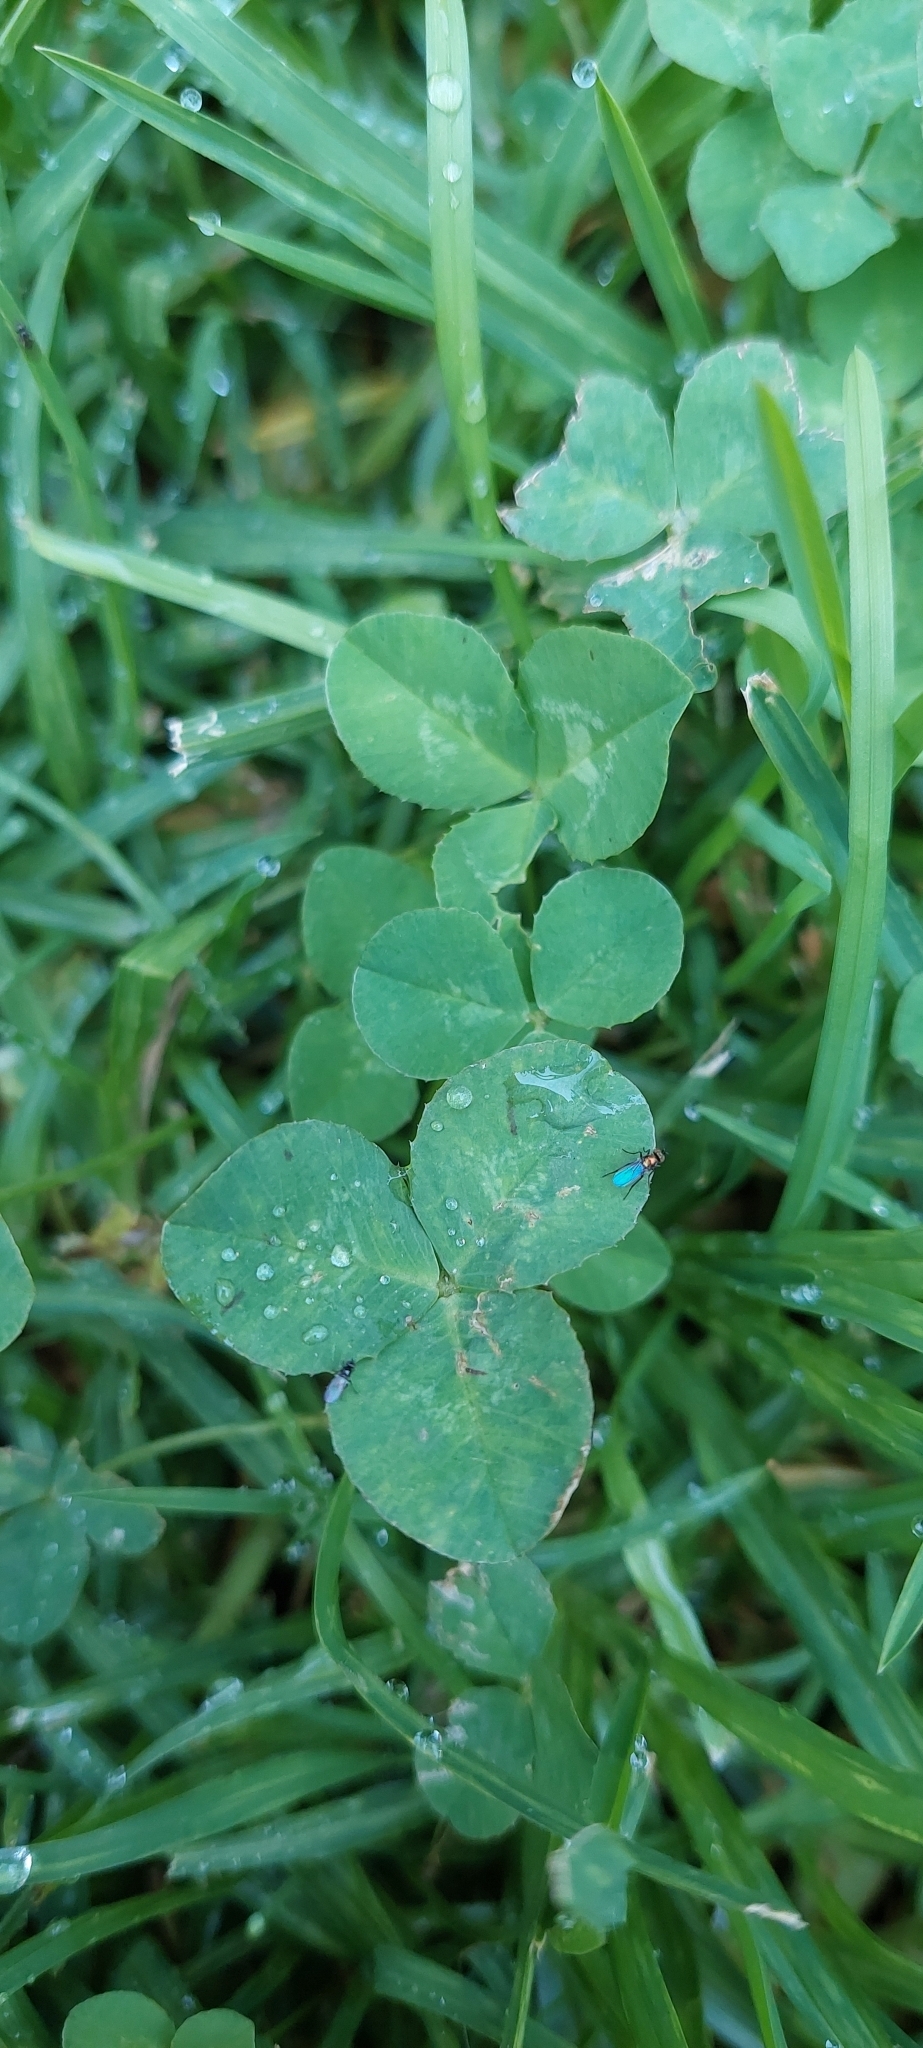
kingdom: Plantae
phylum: Tracheophyta
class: Magnoliopsida
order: Fabales
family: Fabaceae
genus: Trifolium
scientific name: Trifolium repens
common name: White clover
